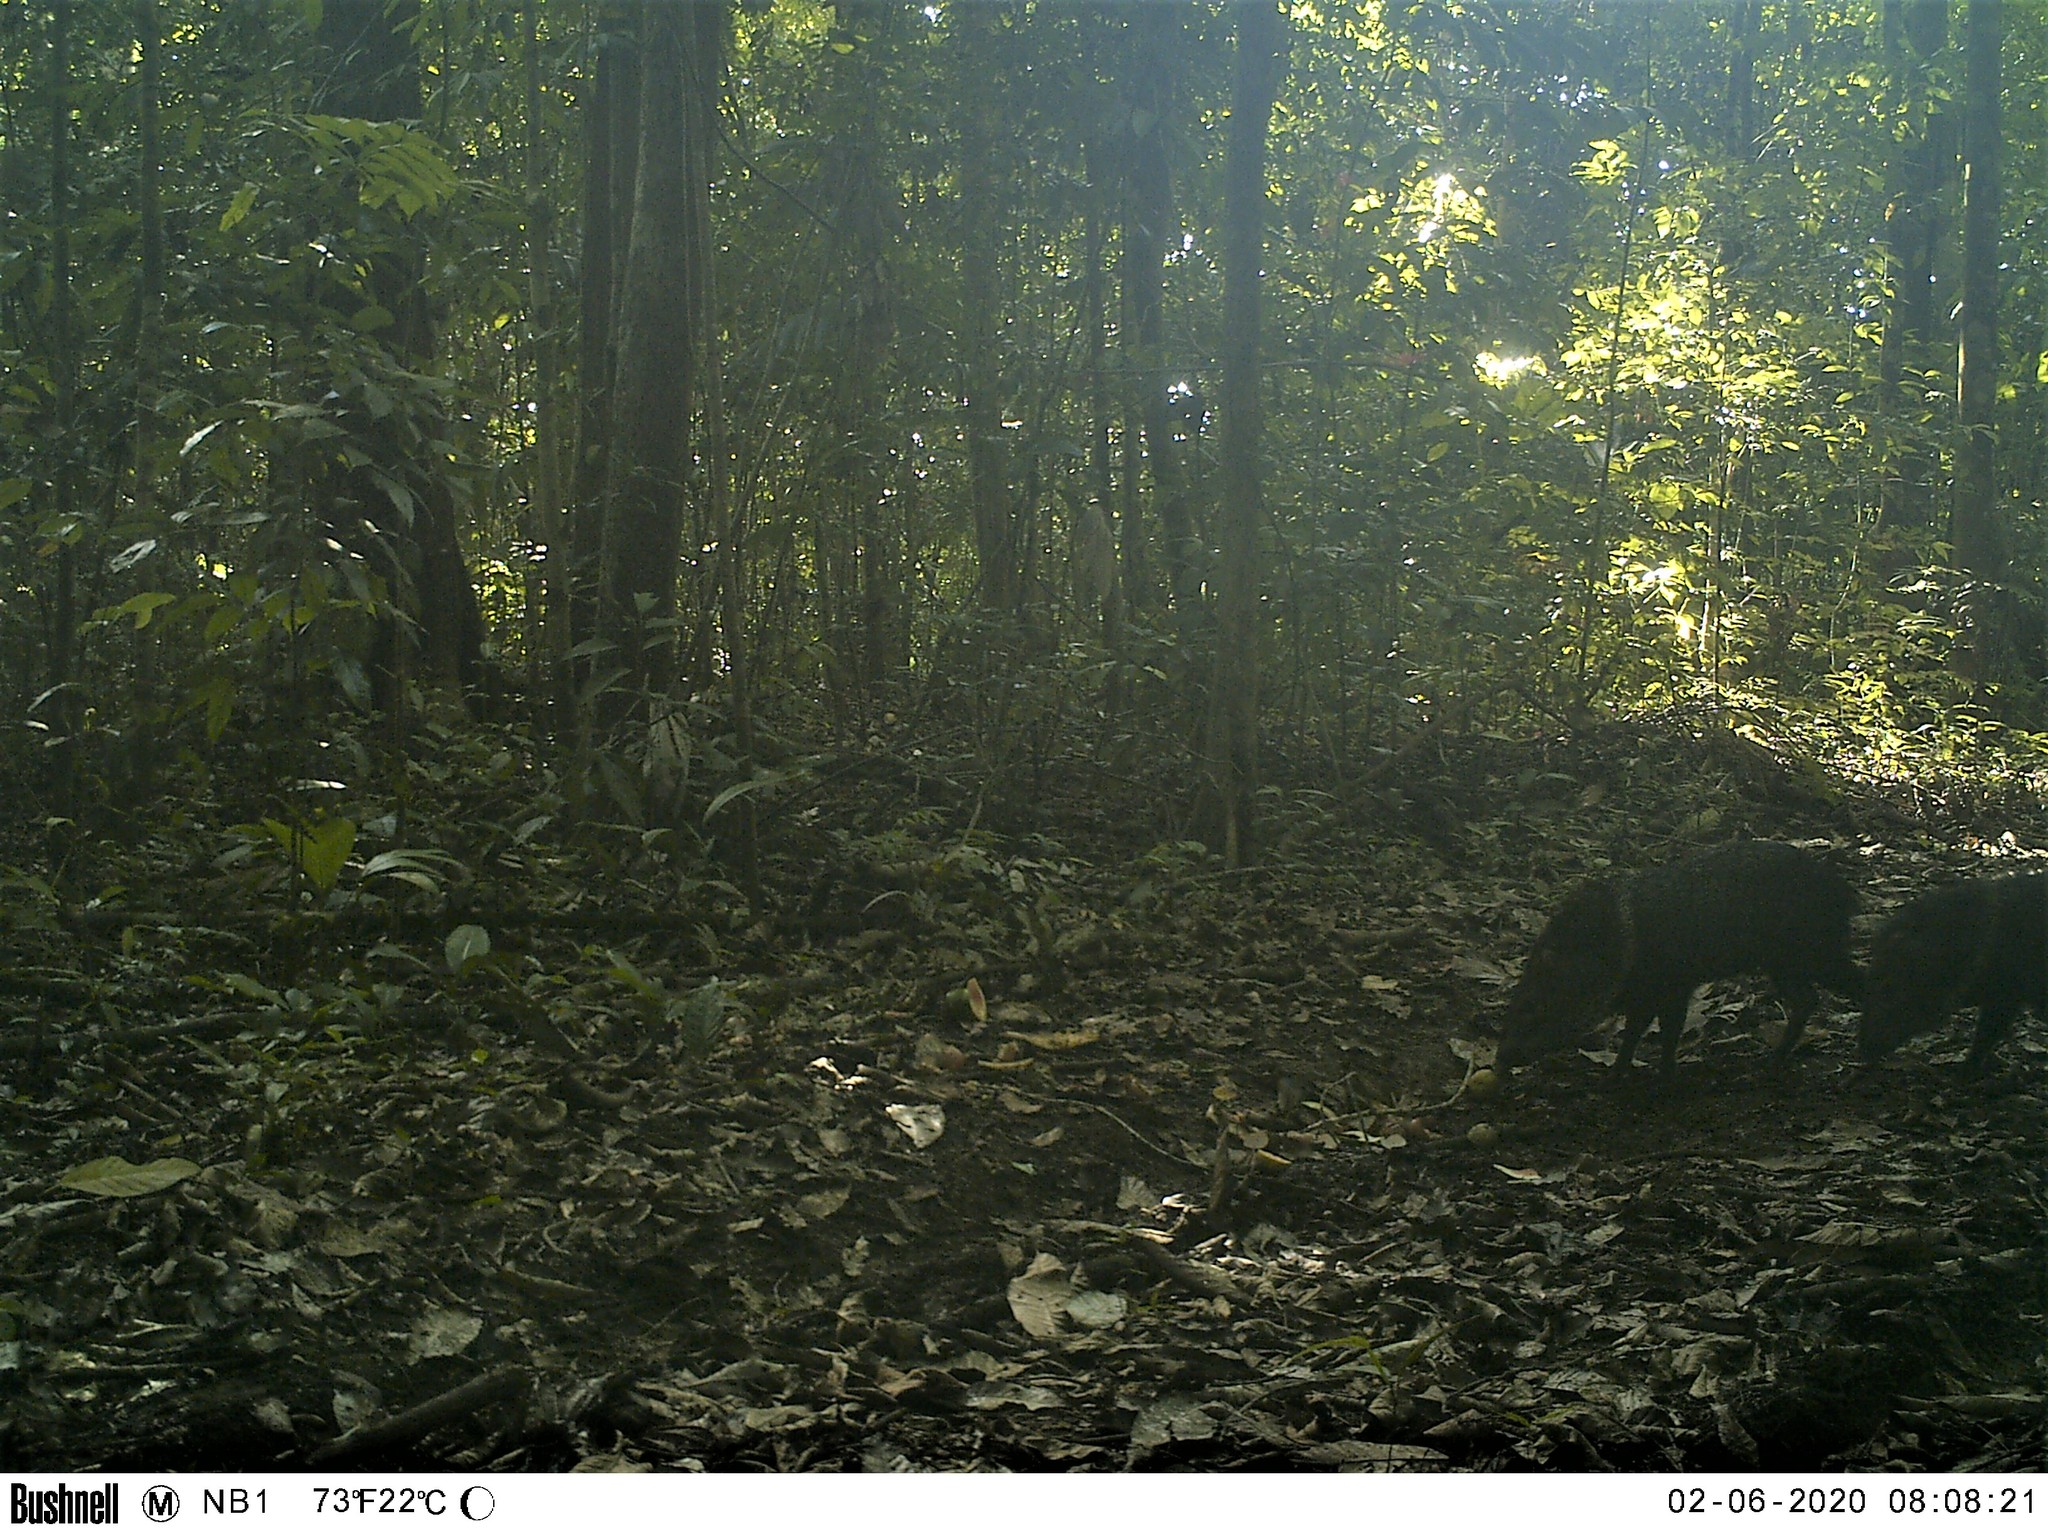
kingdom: Animalia
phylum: Chordata
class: Mammalia
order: Artiodactyla
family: Tayassuidae
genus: Pecari
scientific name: Pecari tajacu
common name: Collared peccary
